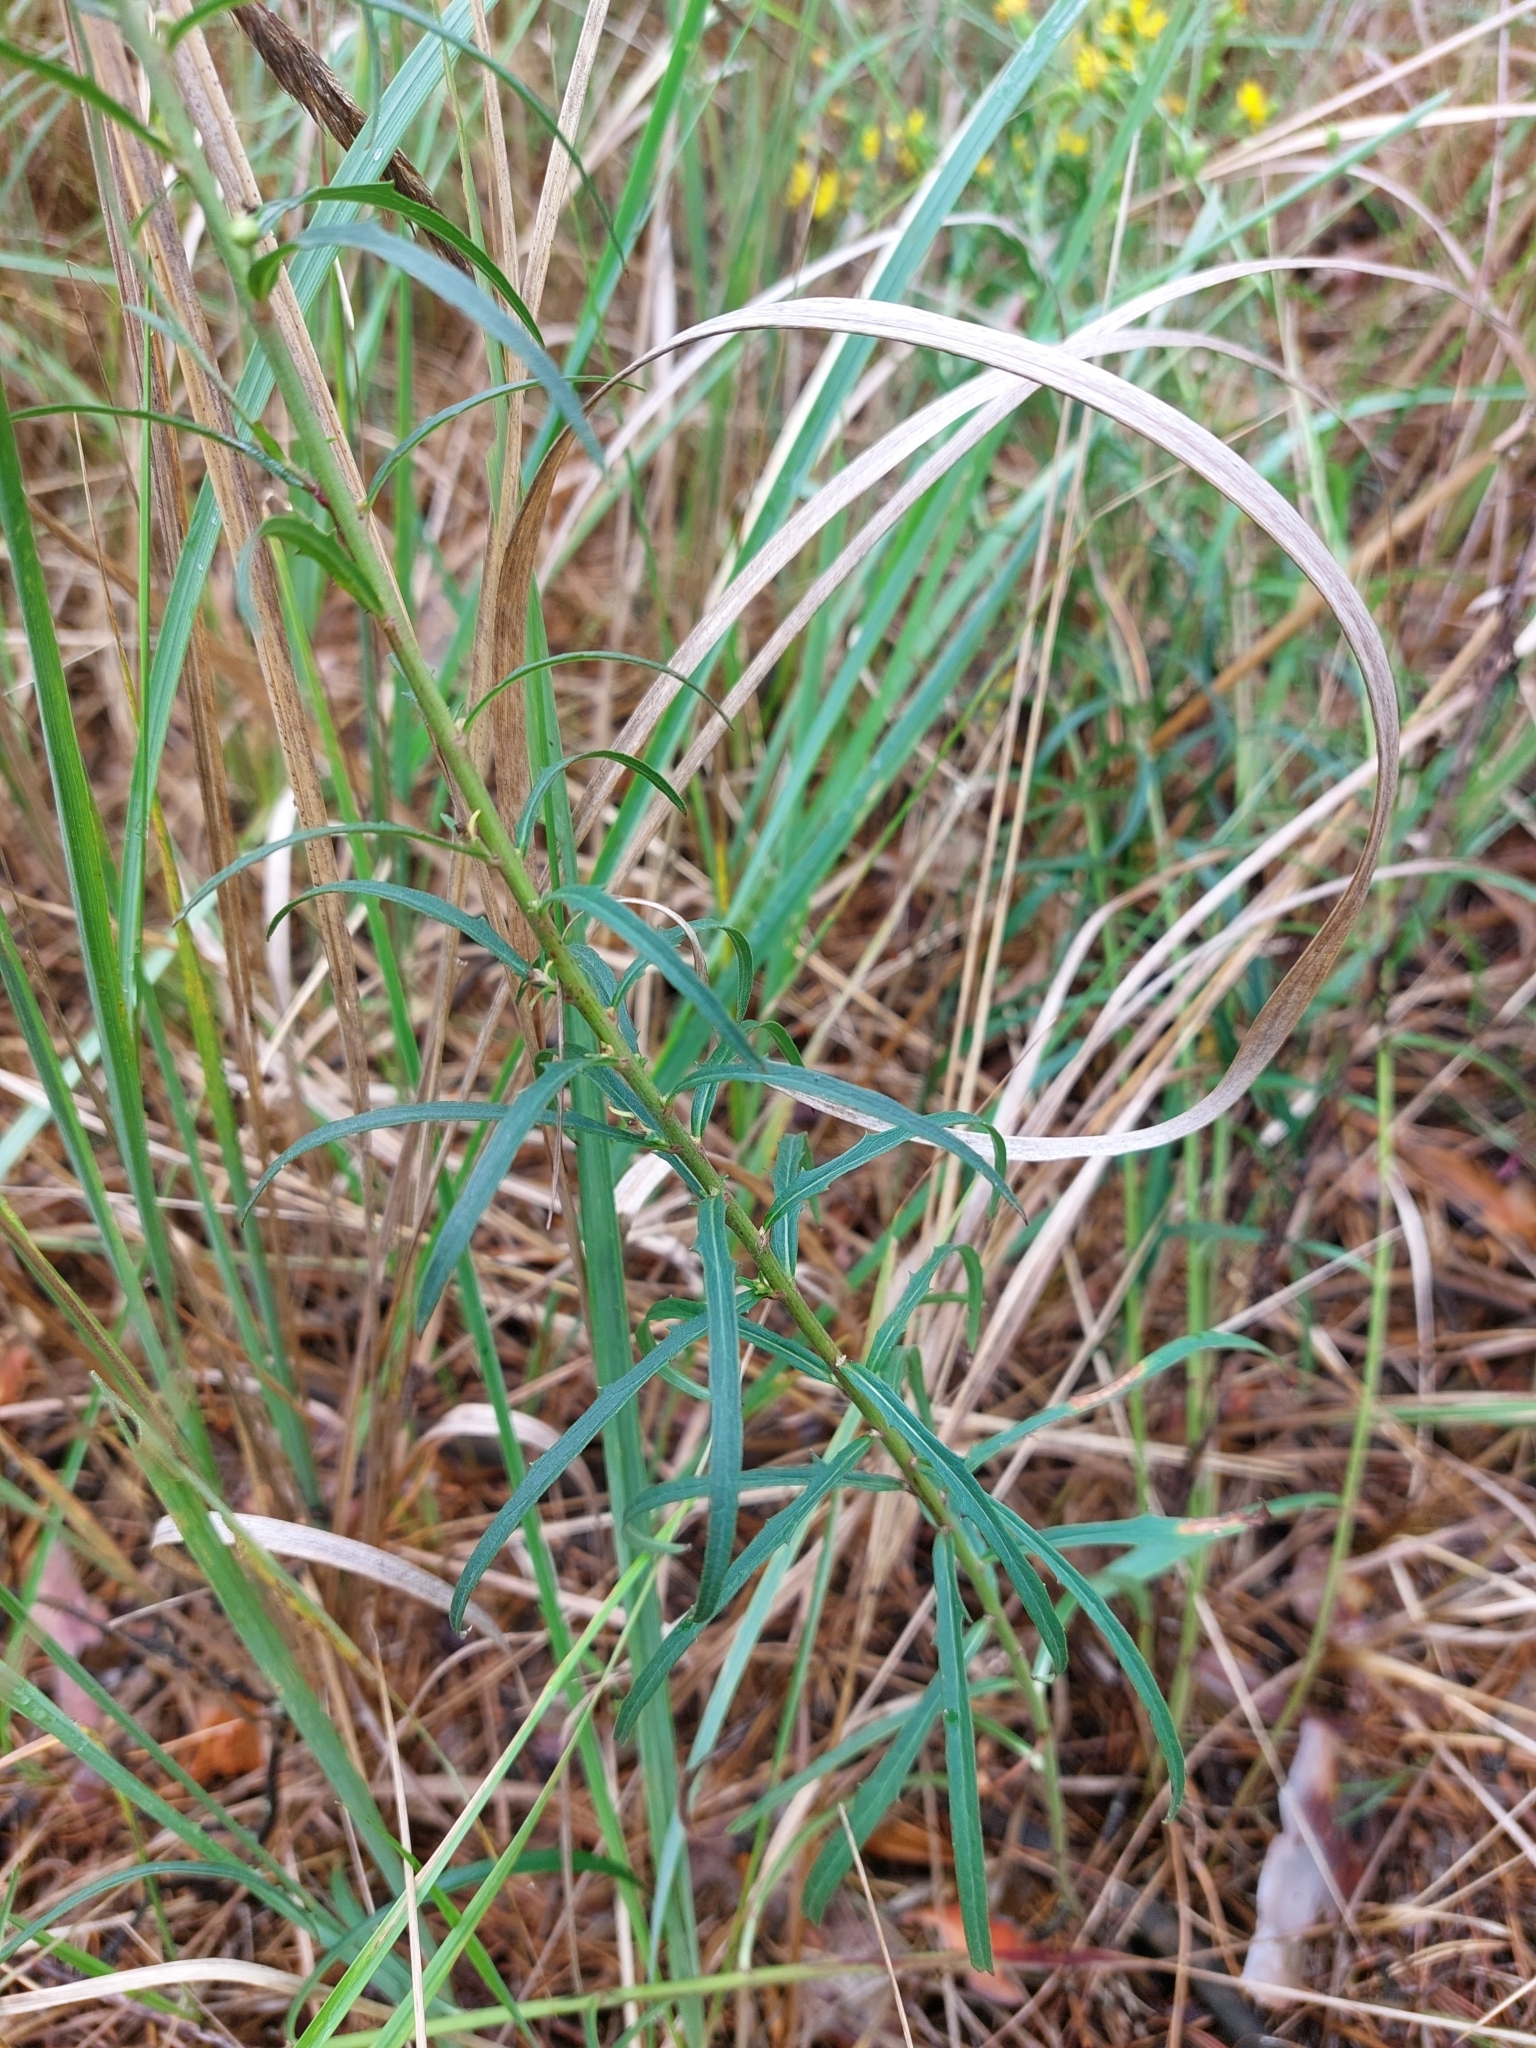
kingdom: Plantae
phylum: Tracheophyta
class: Magnoliopsida
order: Asterales
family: Asteraceae
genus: Hieracium
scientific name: Hieracium umbellatum
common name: Northern hawkweed
